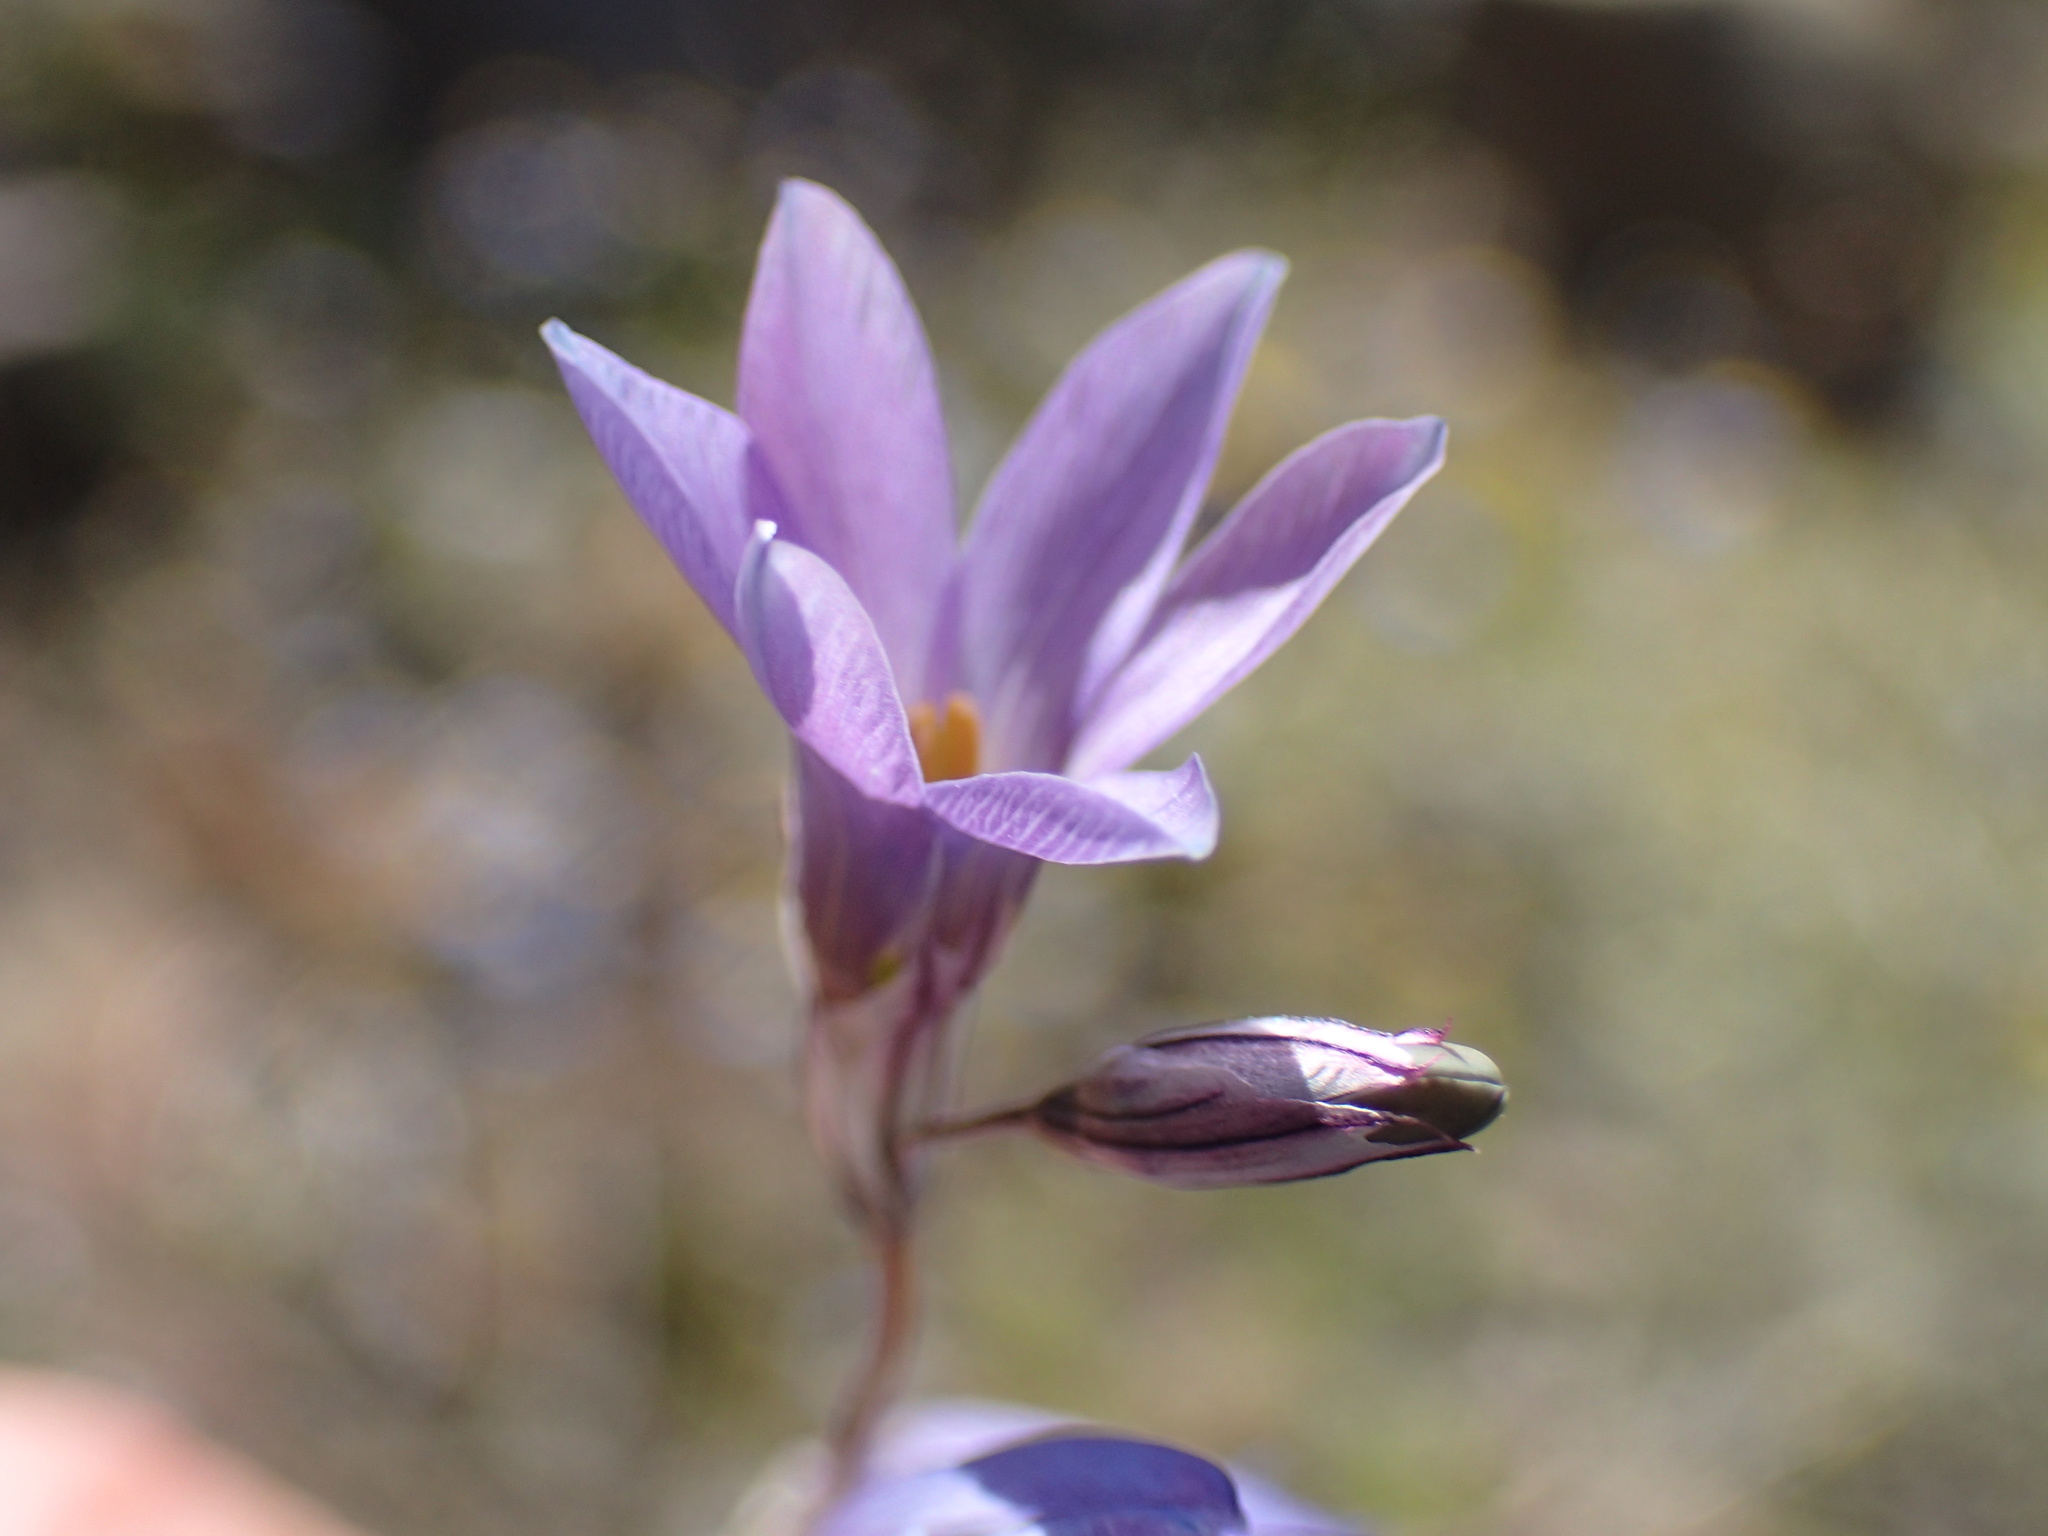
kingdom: Plantae
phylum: Tracheophyta
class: Liliopsida
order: Asparagales
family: Iridaceae
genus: Ixia
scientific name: Ixia sobolifera
